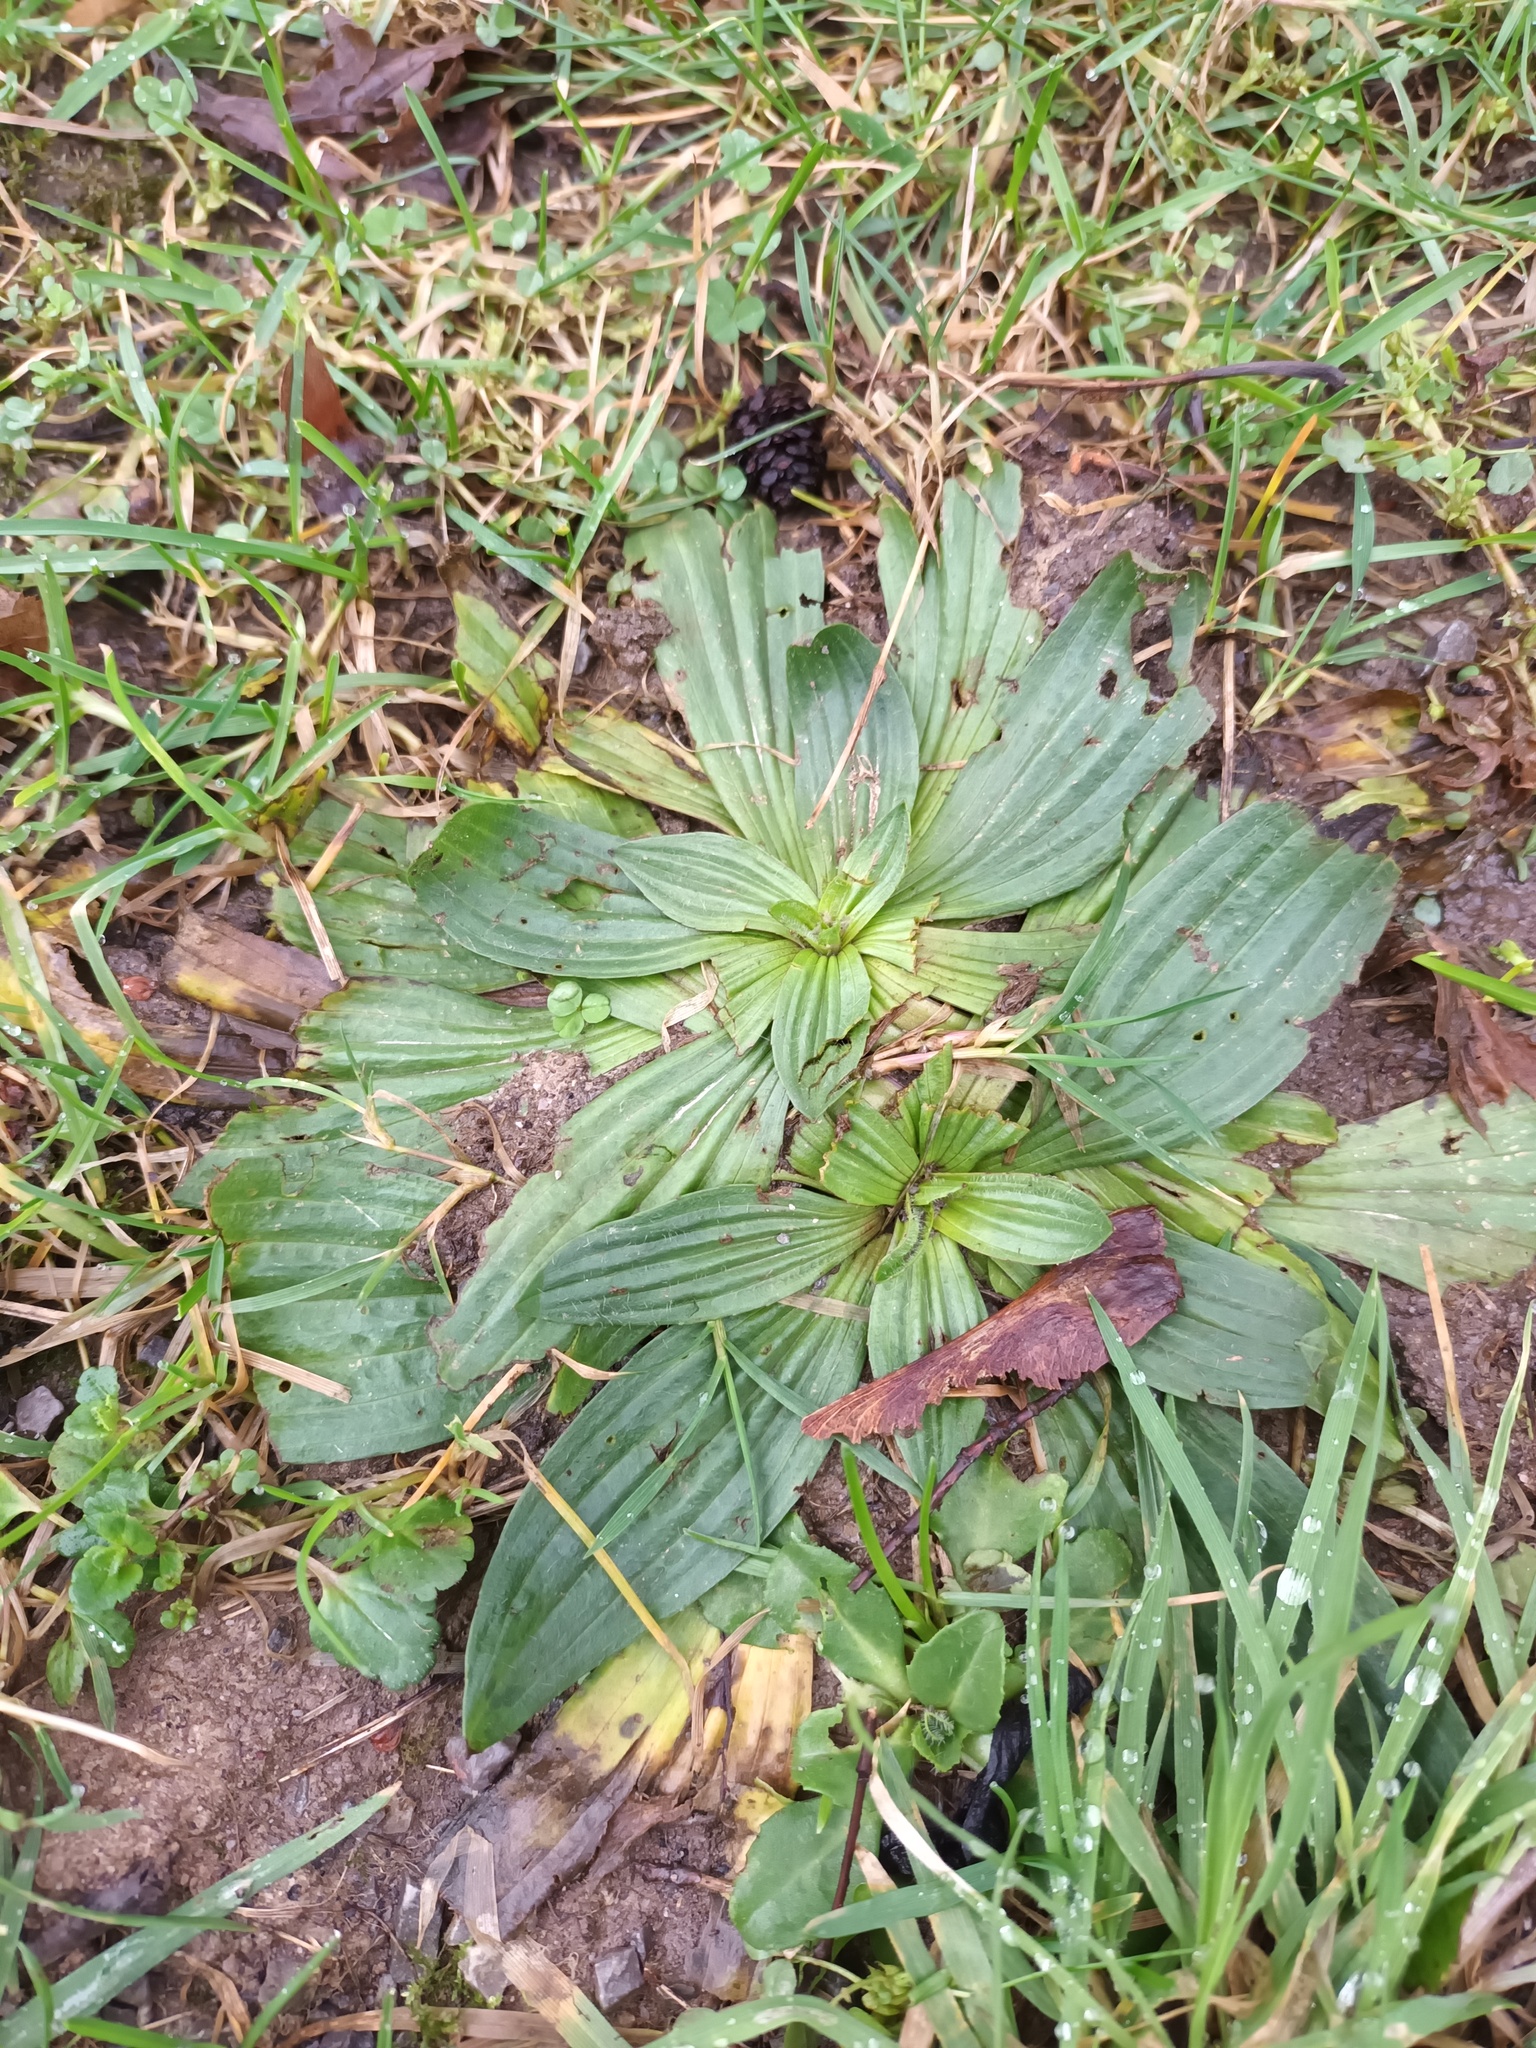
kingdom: Plantae
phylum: Tracheophyta
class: Magnoliopsida
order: Lamiales
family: Plantaginaceae
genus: Plantago
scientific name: Plantago lanceolata
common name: Ribwort plantain
